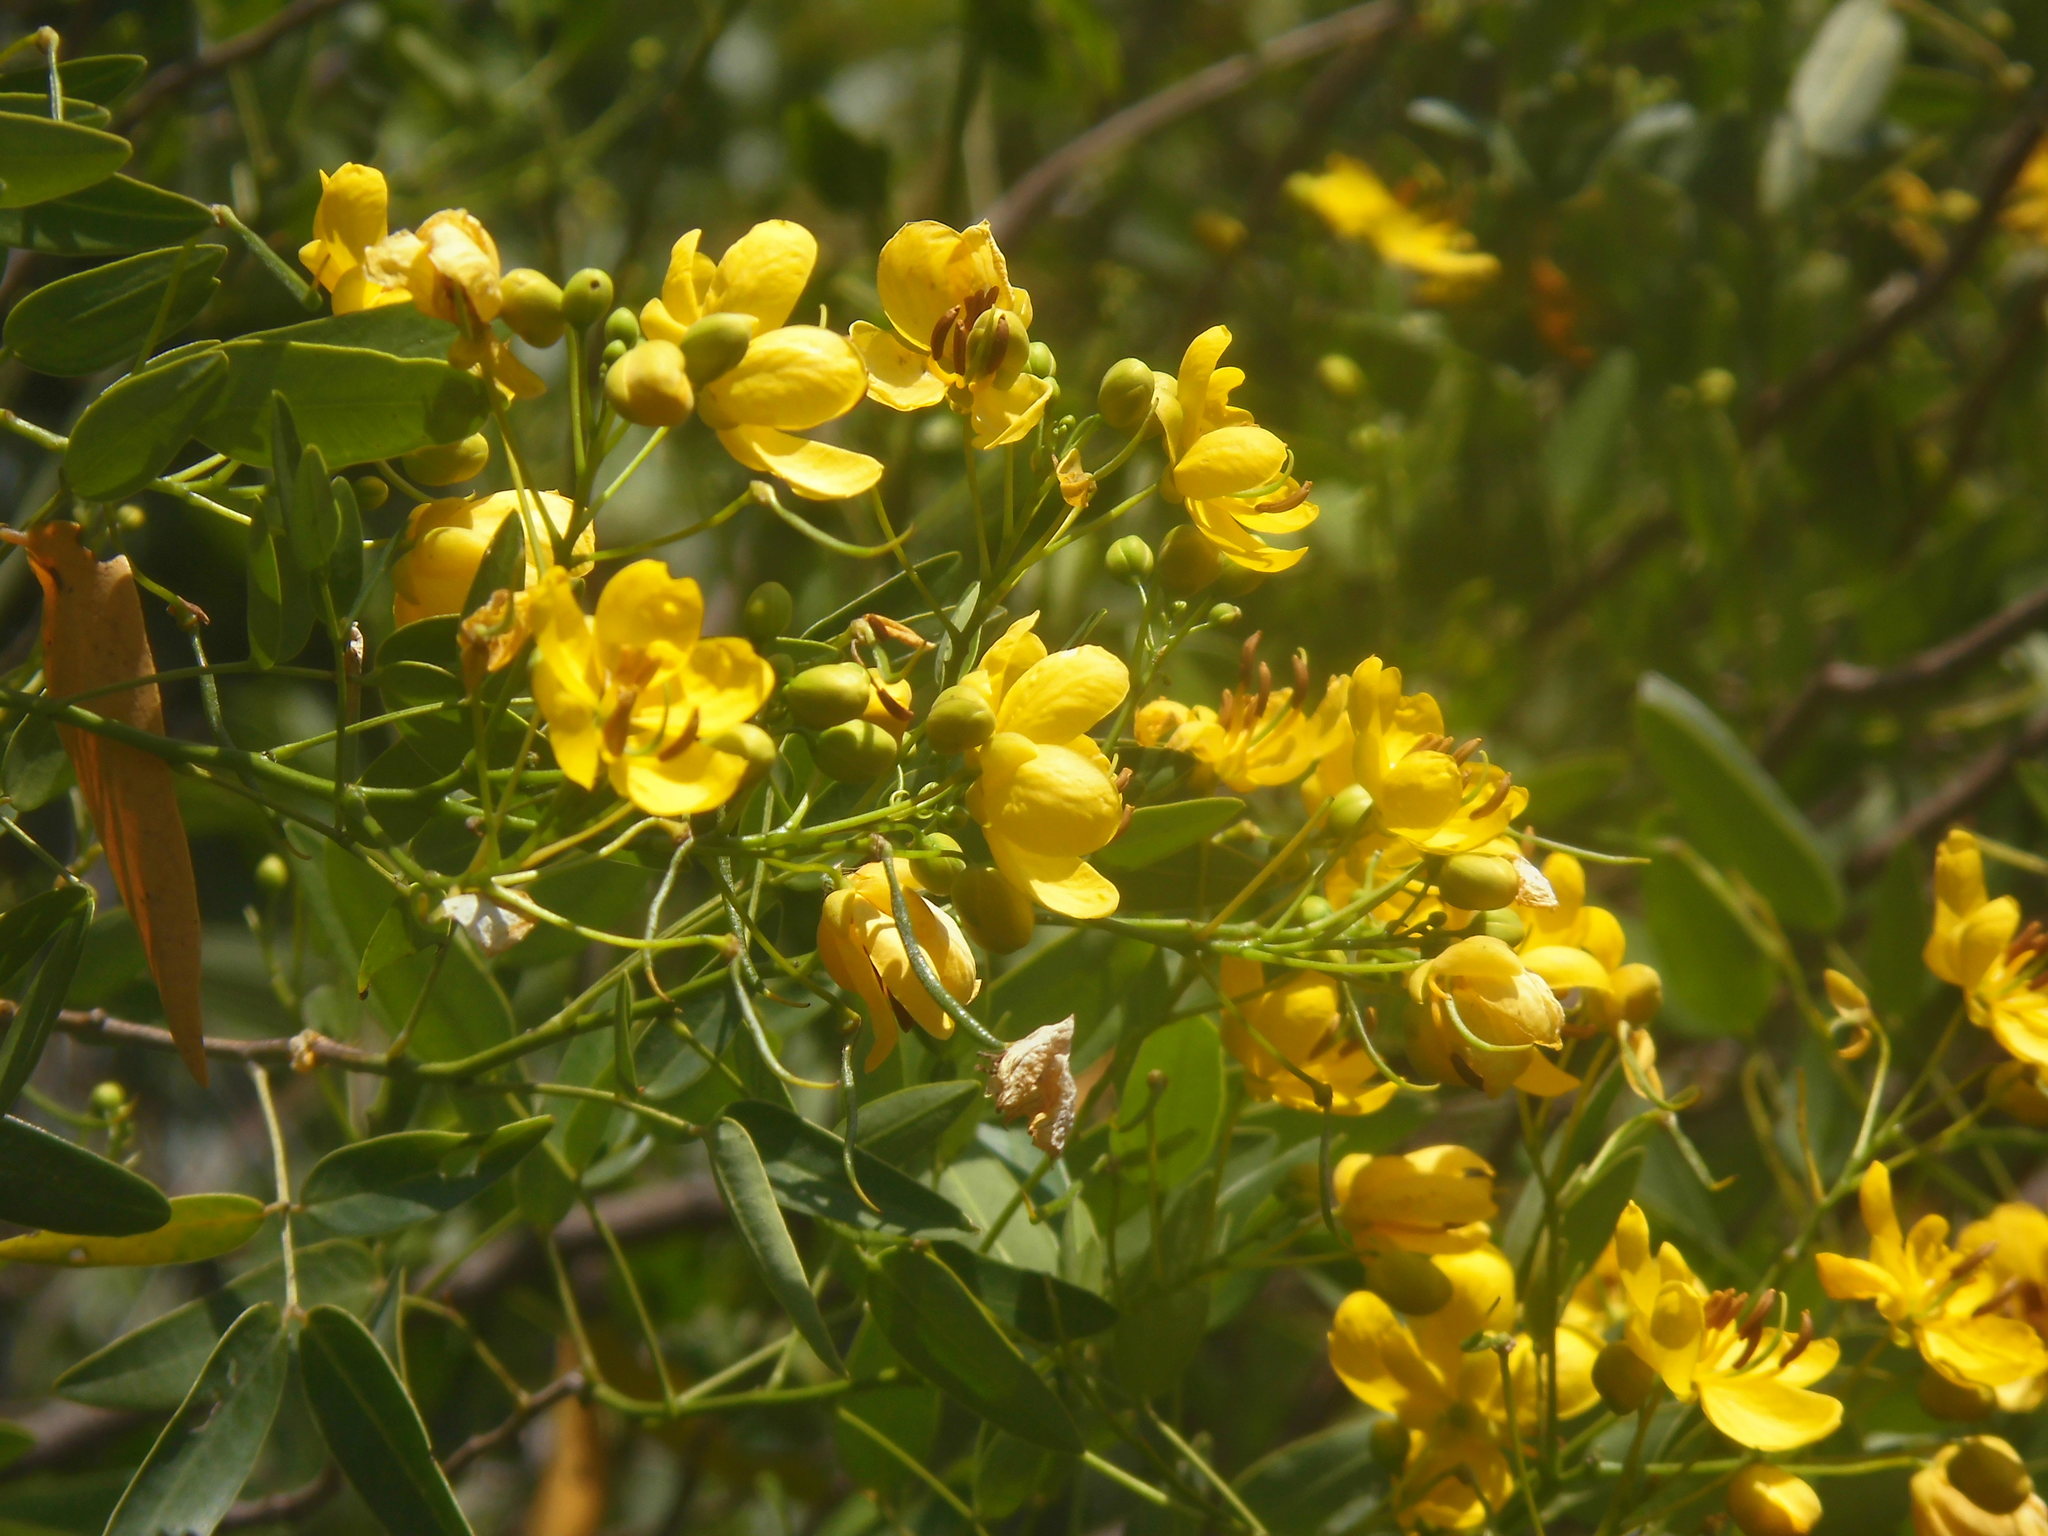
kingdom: Plantae
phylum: Tracheophyta
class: Magnoliopsida
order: Fabales
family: Fabaceae
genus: Senna
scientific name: Senna corymbosa
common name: Argentine senna
